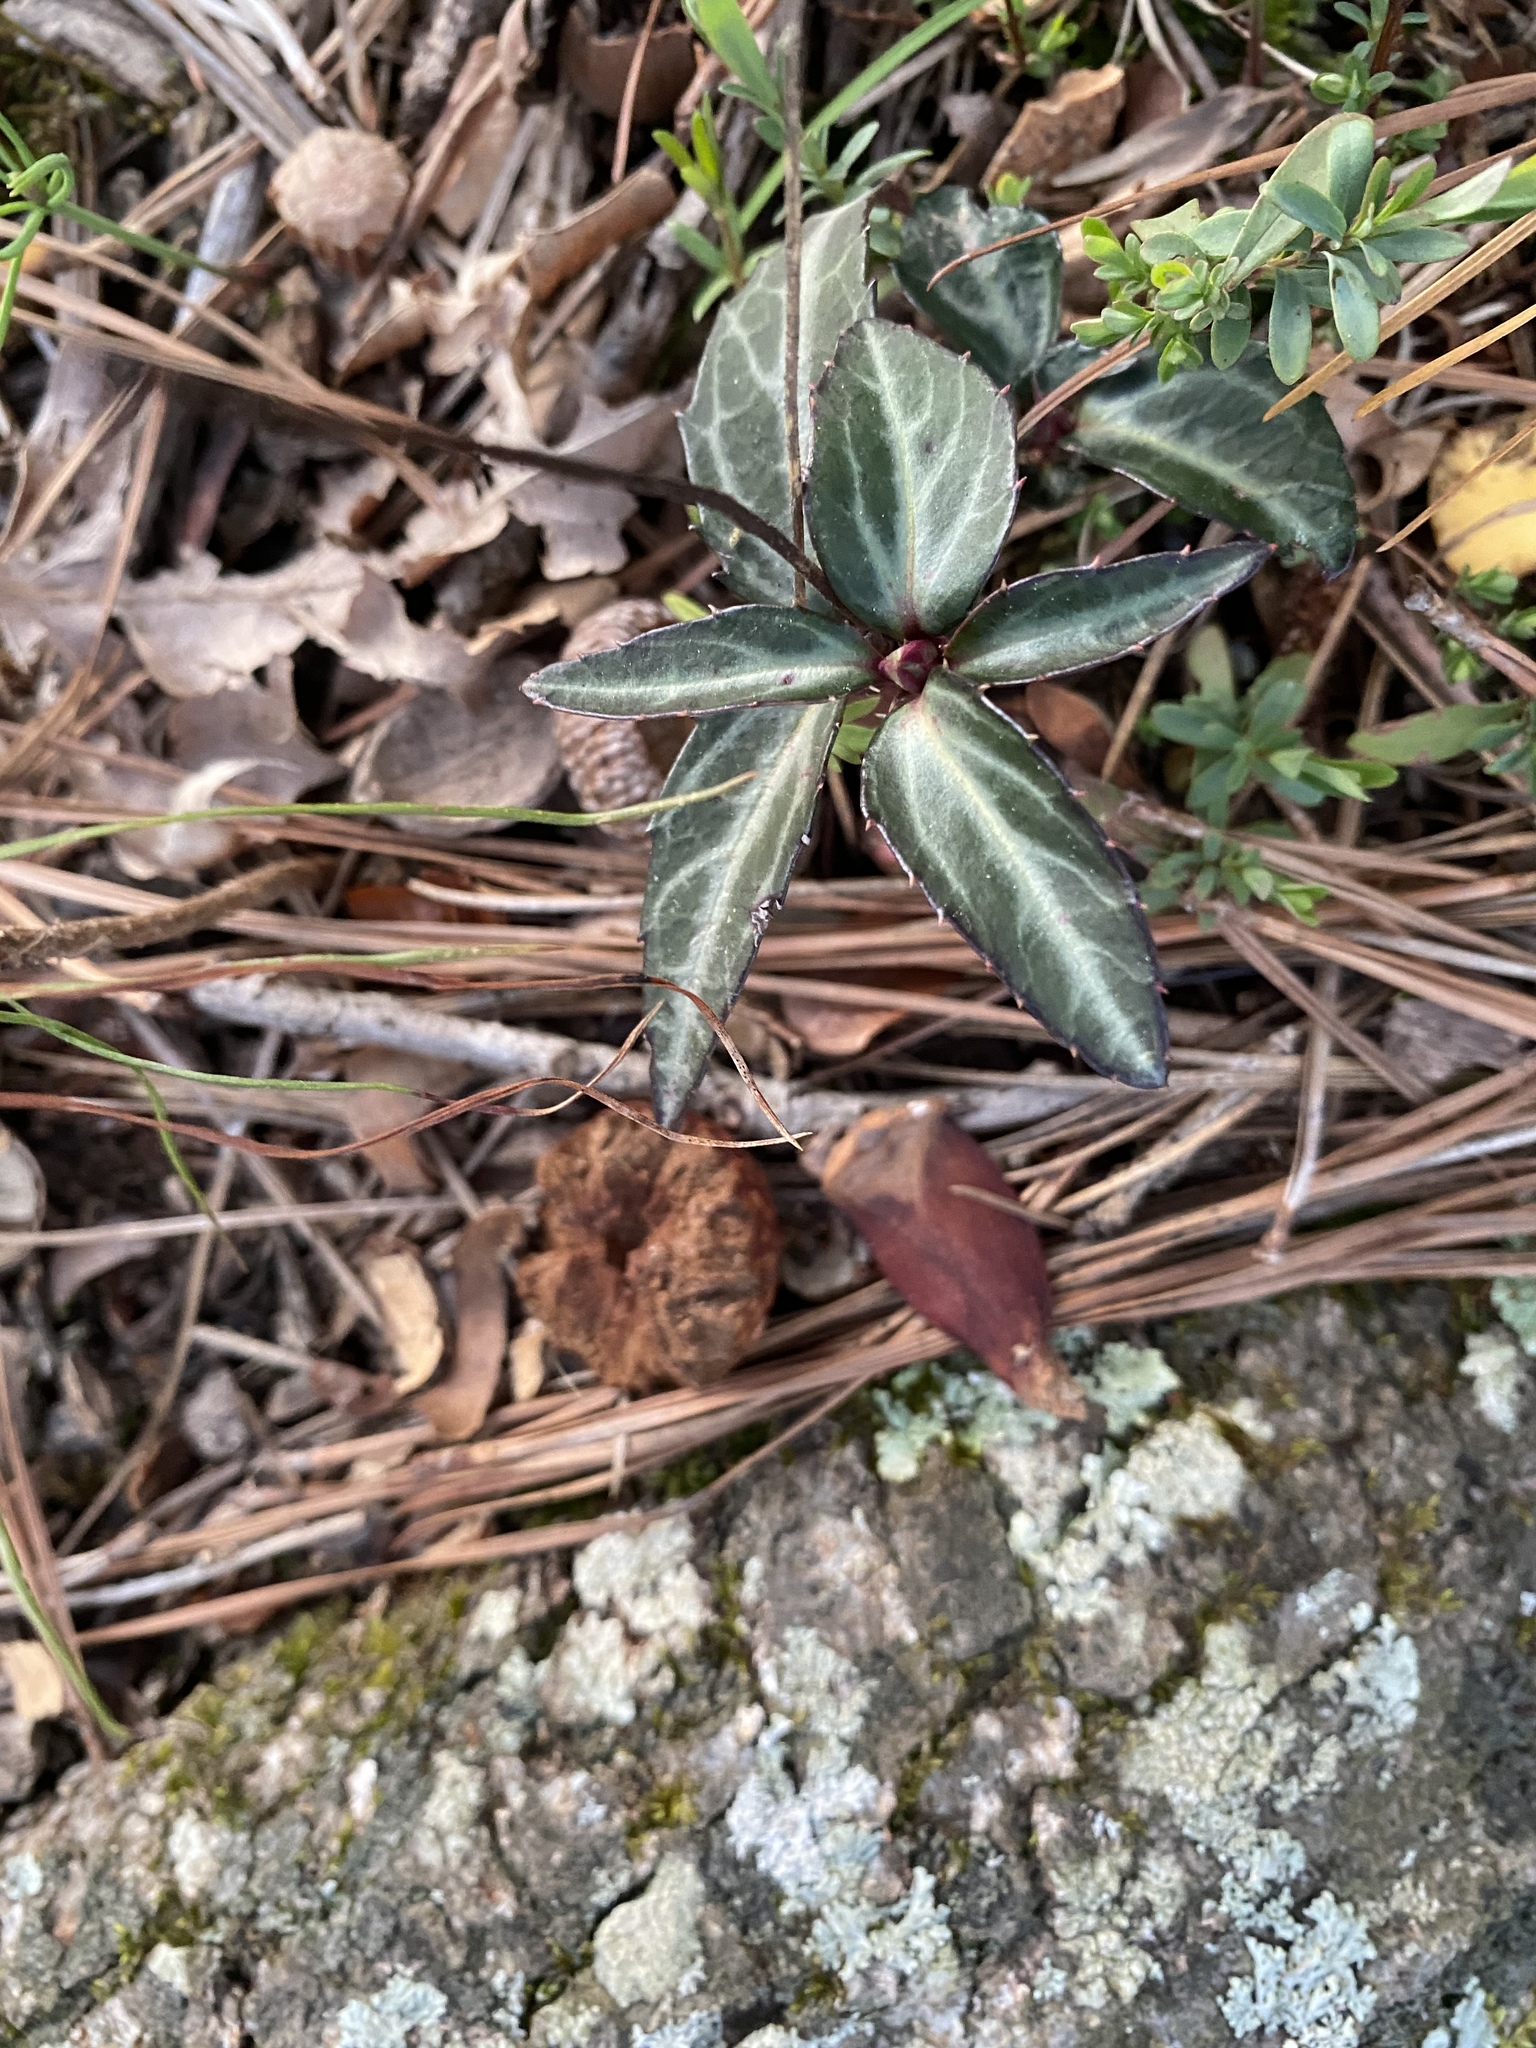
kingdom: Plantae
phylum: Tracheophyta
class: Magnoliopsida
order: Ericales
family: Ericaceae
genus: Chimaphila
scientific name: Chimaphila maculata
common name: Spotted pipsissewa
